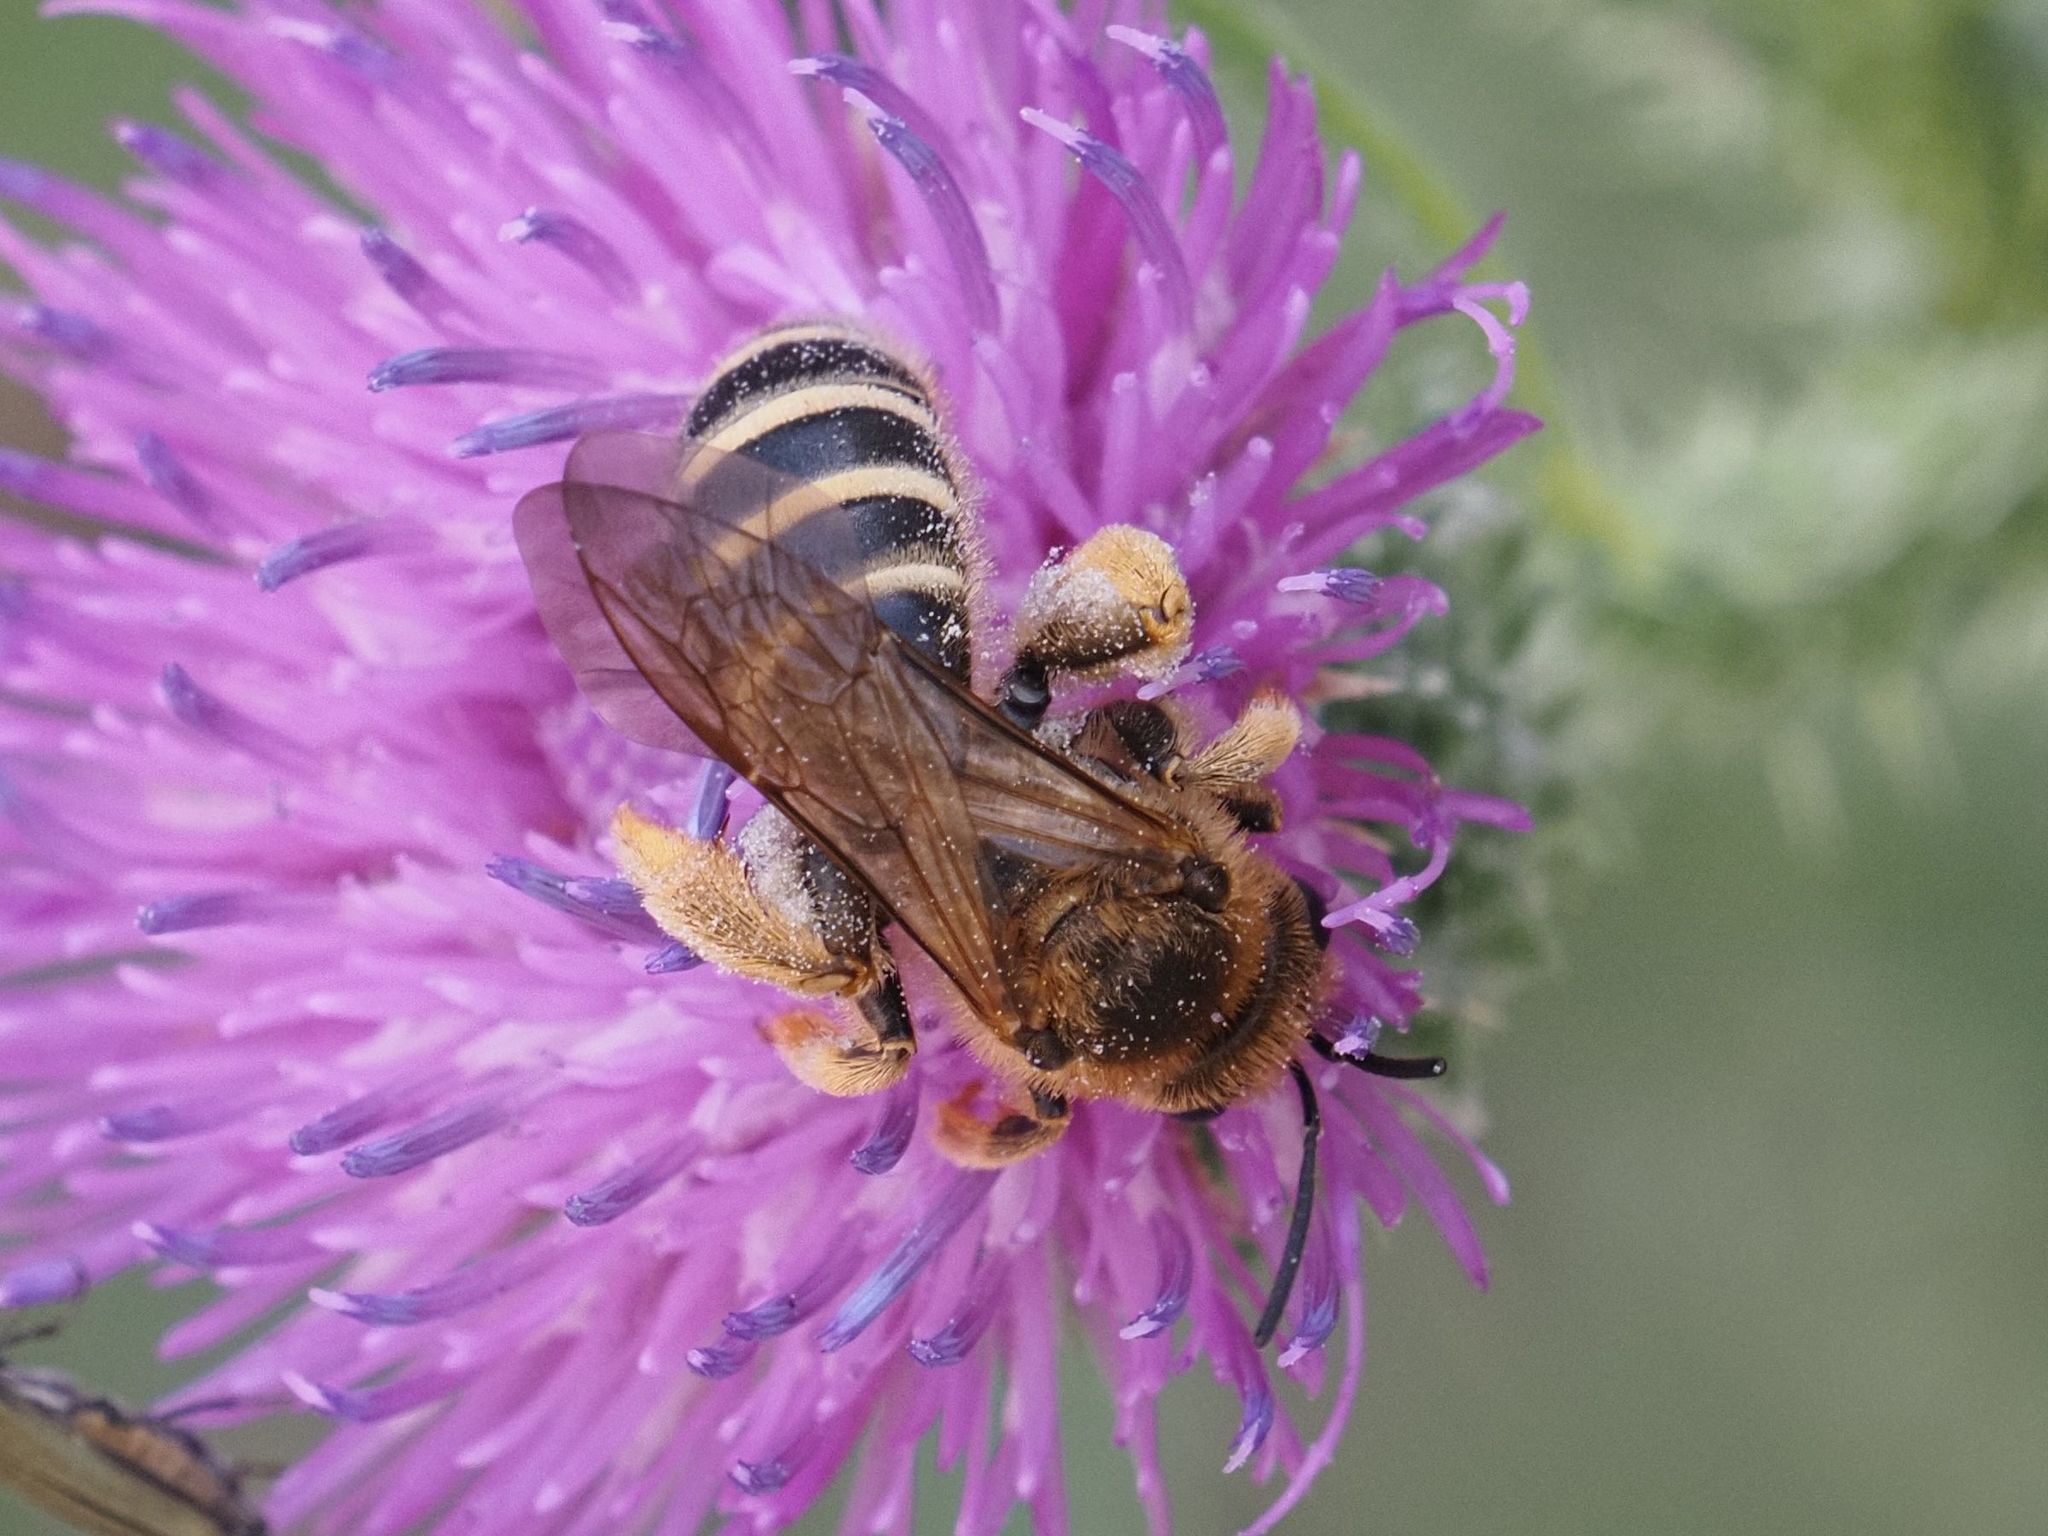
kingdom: Animalia
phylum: Arthropoda
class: Insecta
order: Hymenoptera
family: Halictidae
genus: Halictus
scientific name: Halictus scabiosae
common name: Great banded furrow bee
